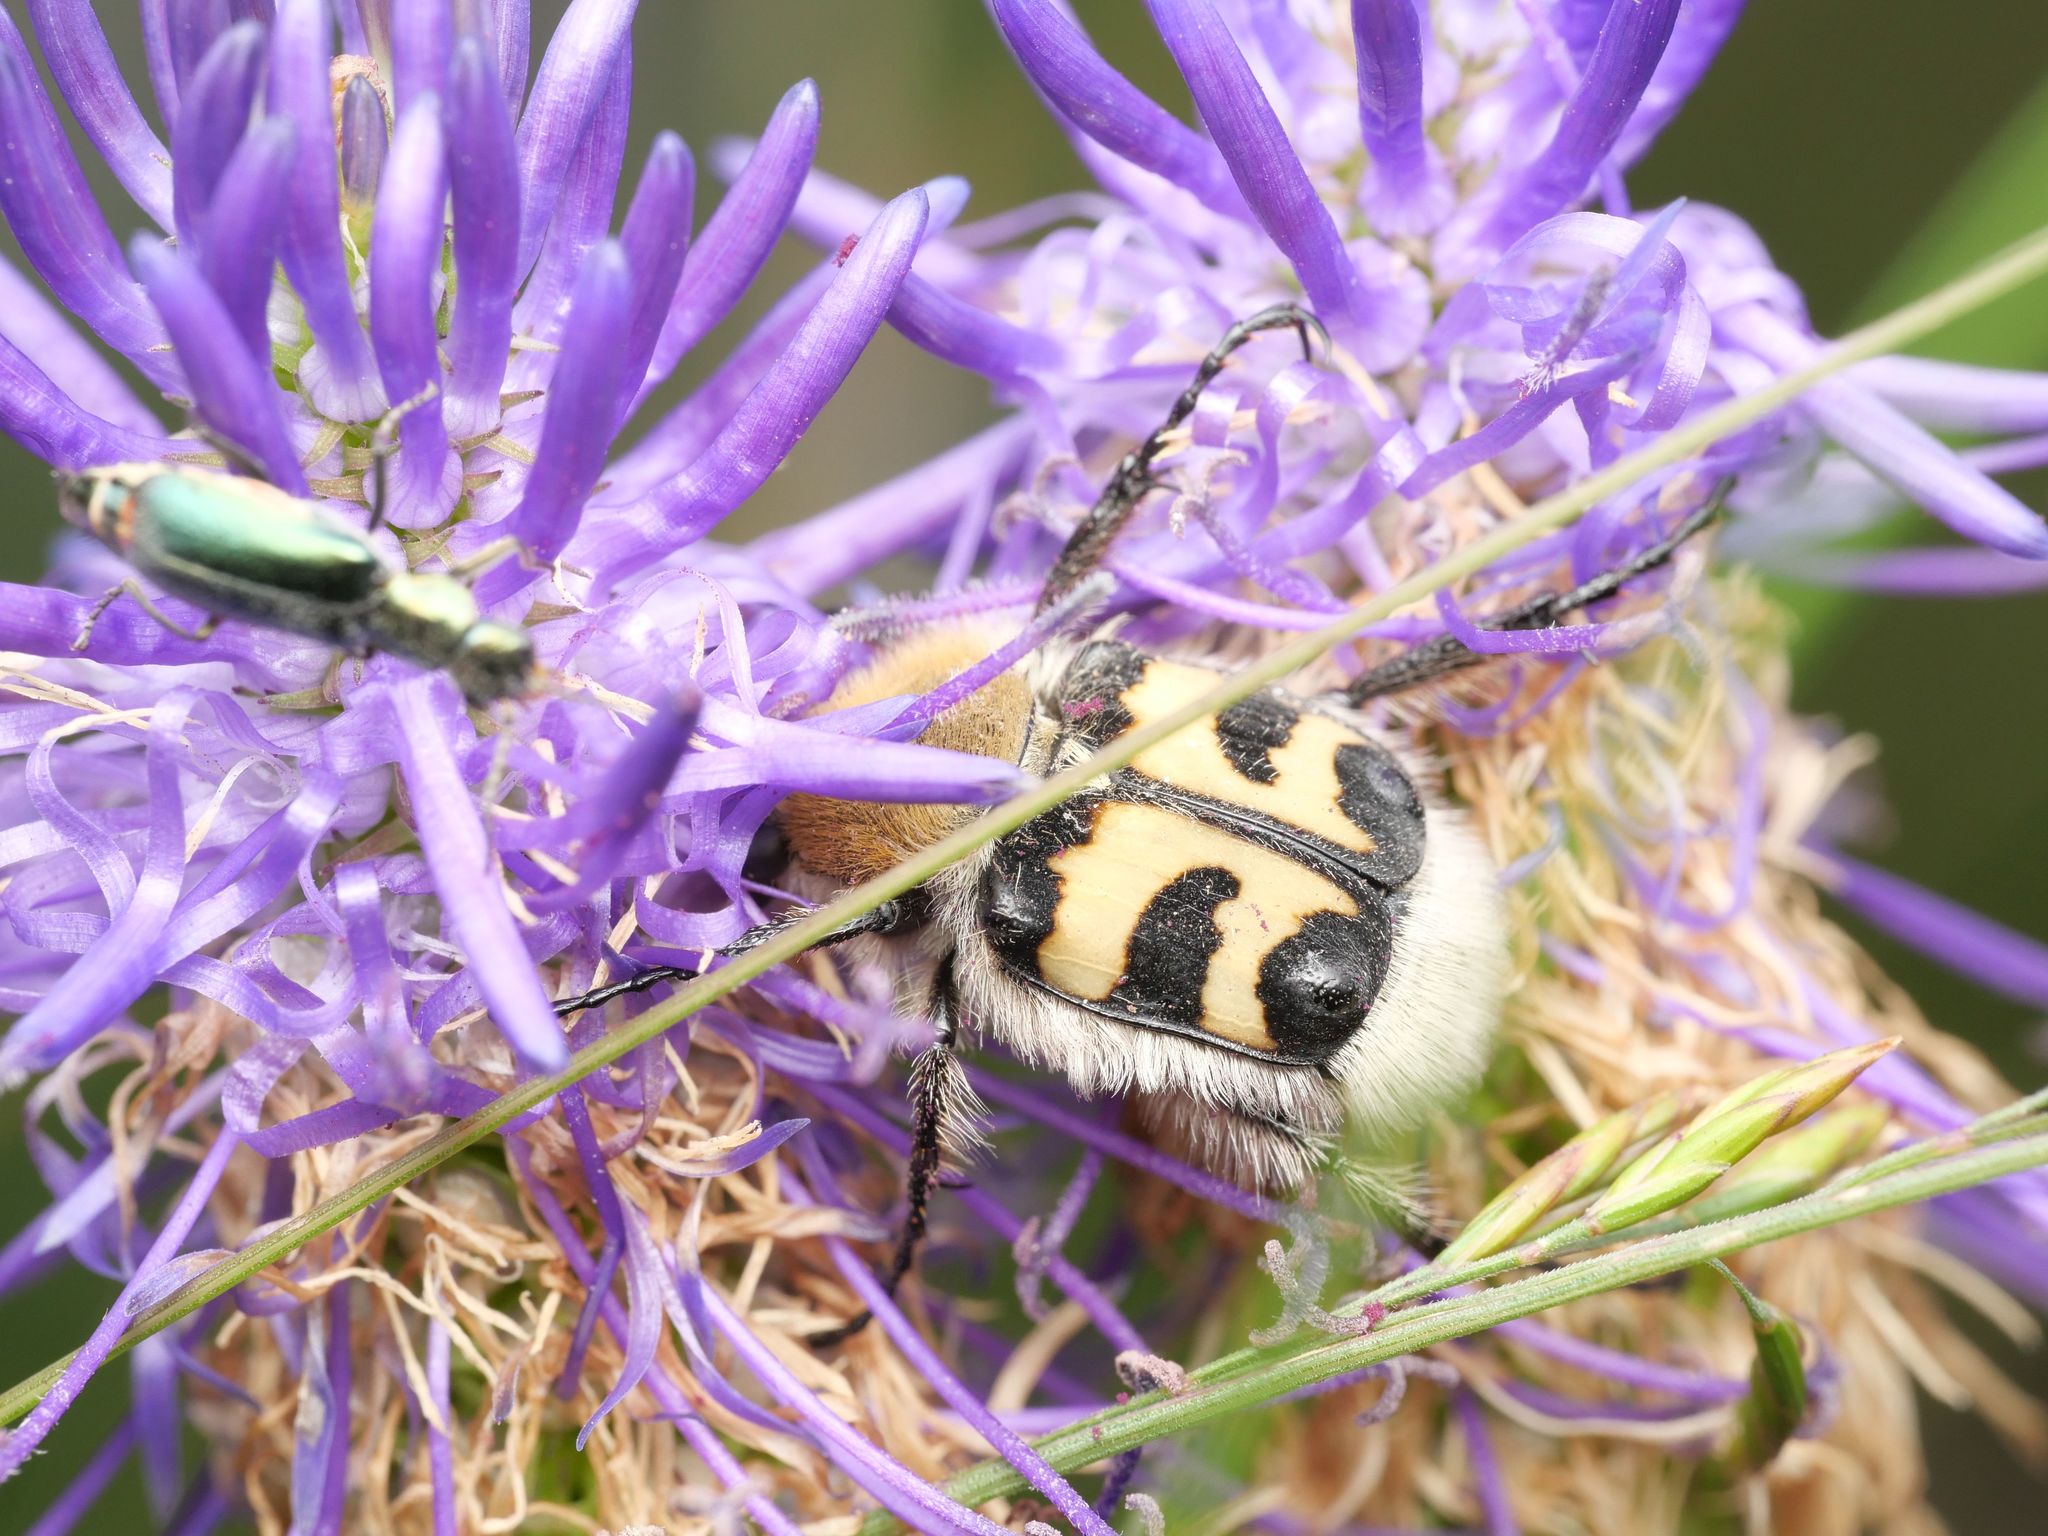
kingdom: Animalia
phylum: Arthropoda
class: Insecta
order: Coleoptera
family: Scarabaeidae
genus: Trichius
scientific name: Trichius fasciatus
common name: Bee beetle
